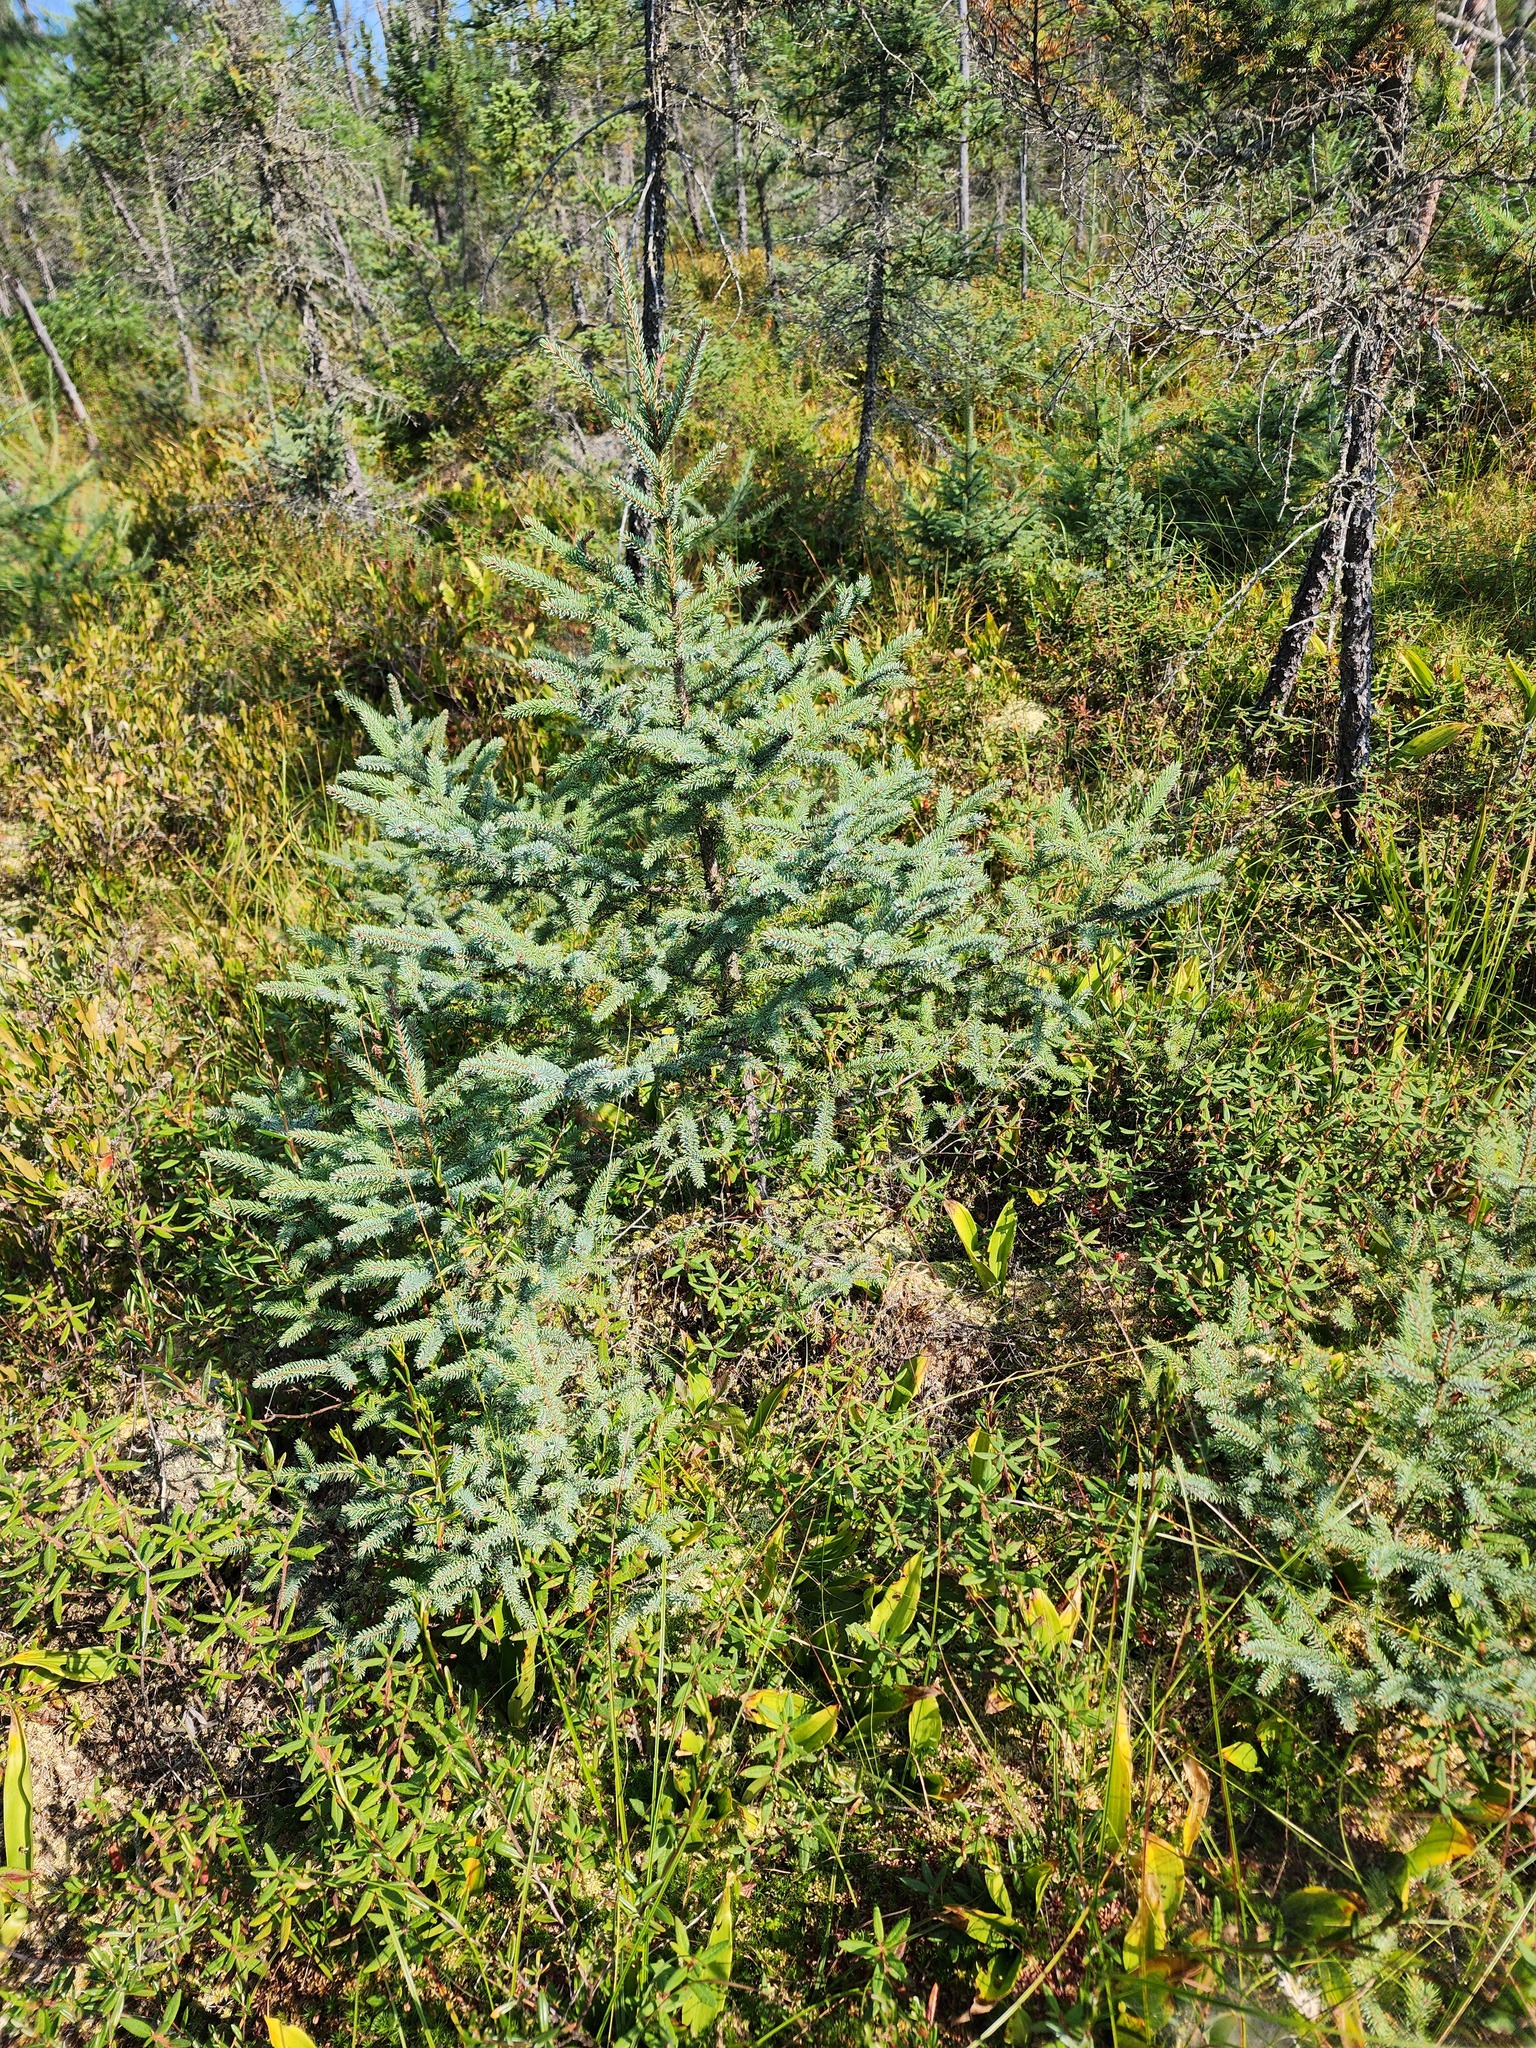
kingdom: Plantae
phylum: Tracheophyta
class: Pinopsida
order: Pinales
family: Pinaceae
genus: Picea
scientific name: Picea mariana
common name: Black spruce
